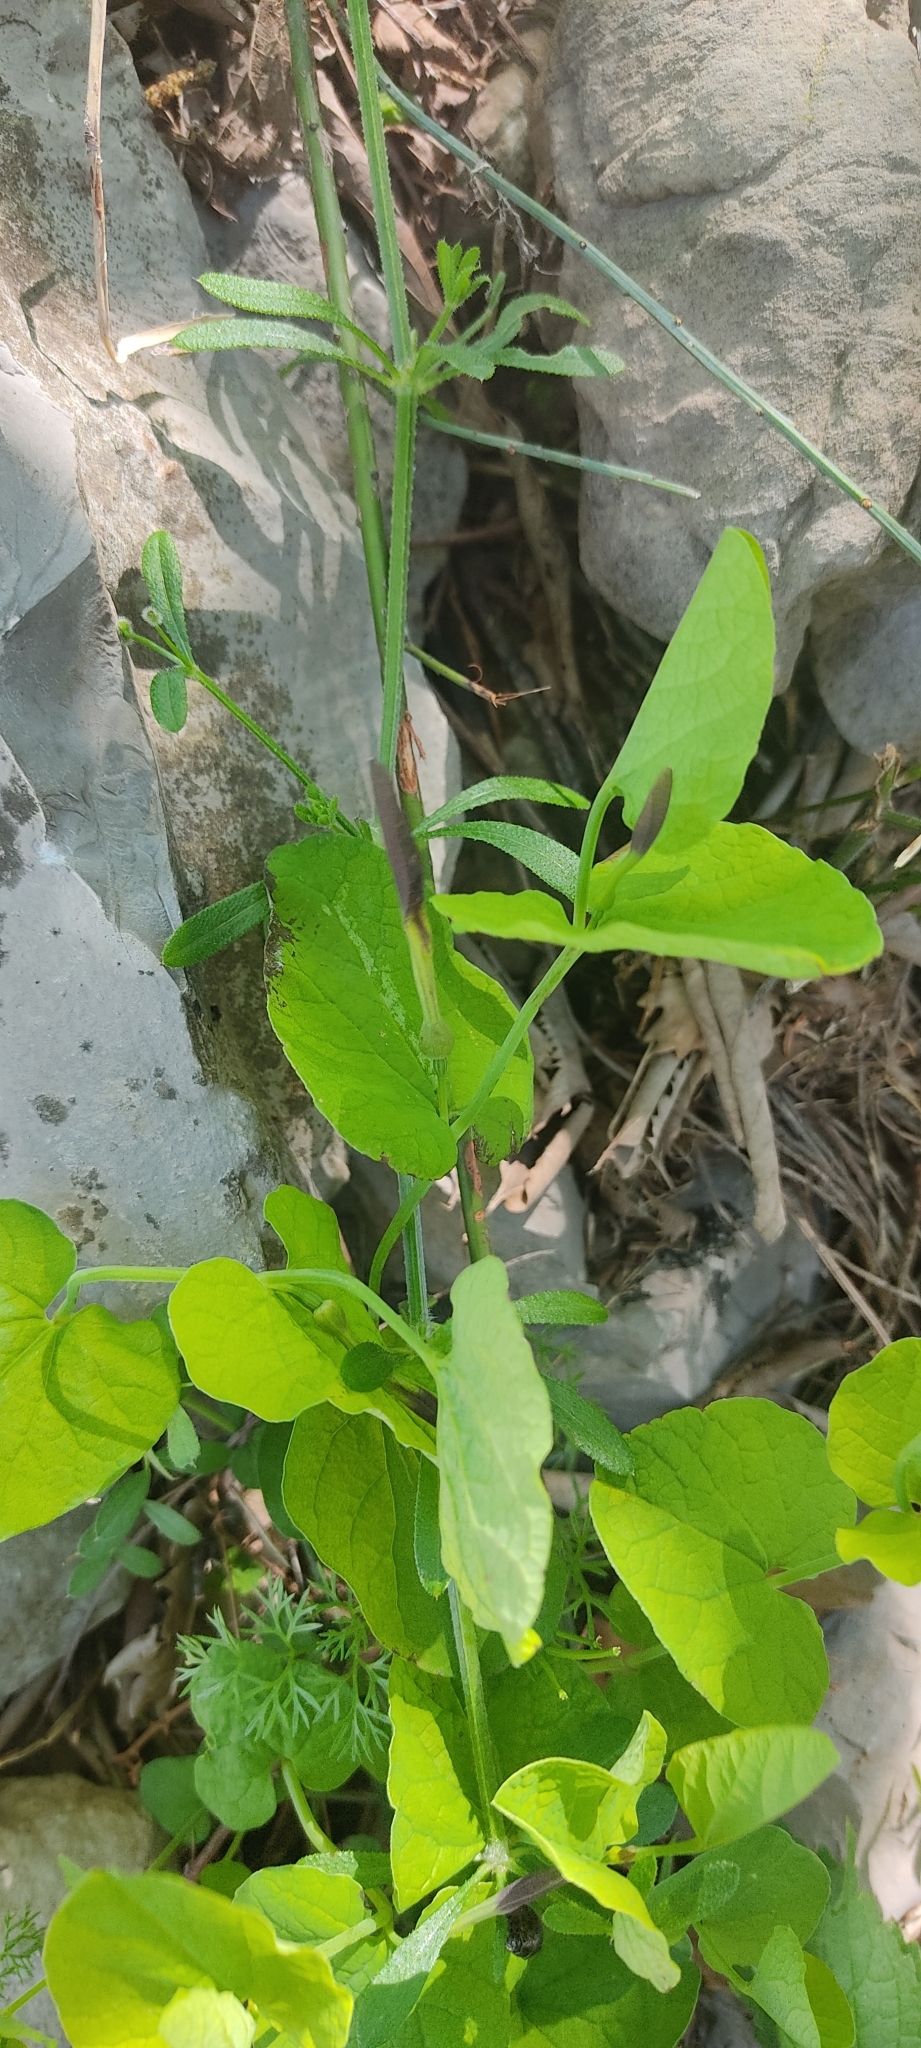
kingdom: Plantae
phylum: Tracheophyta
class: Magnoliopsida
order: Piperales
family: Aristolochiaceae
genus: Aristolochia
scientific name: Aristolochia rotunda
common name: Smearwort
